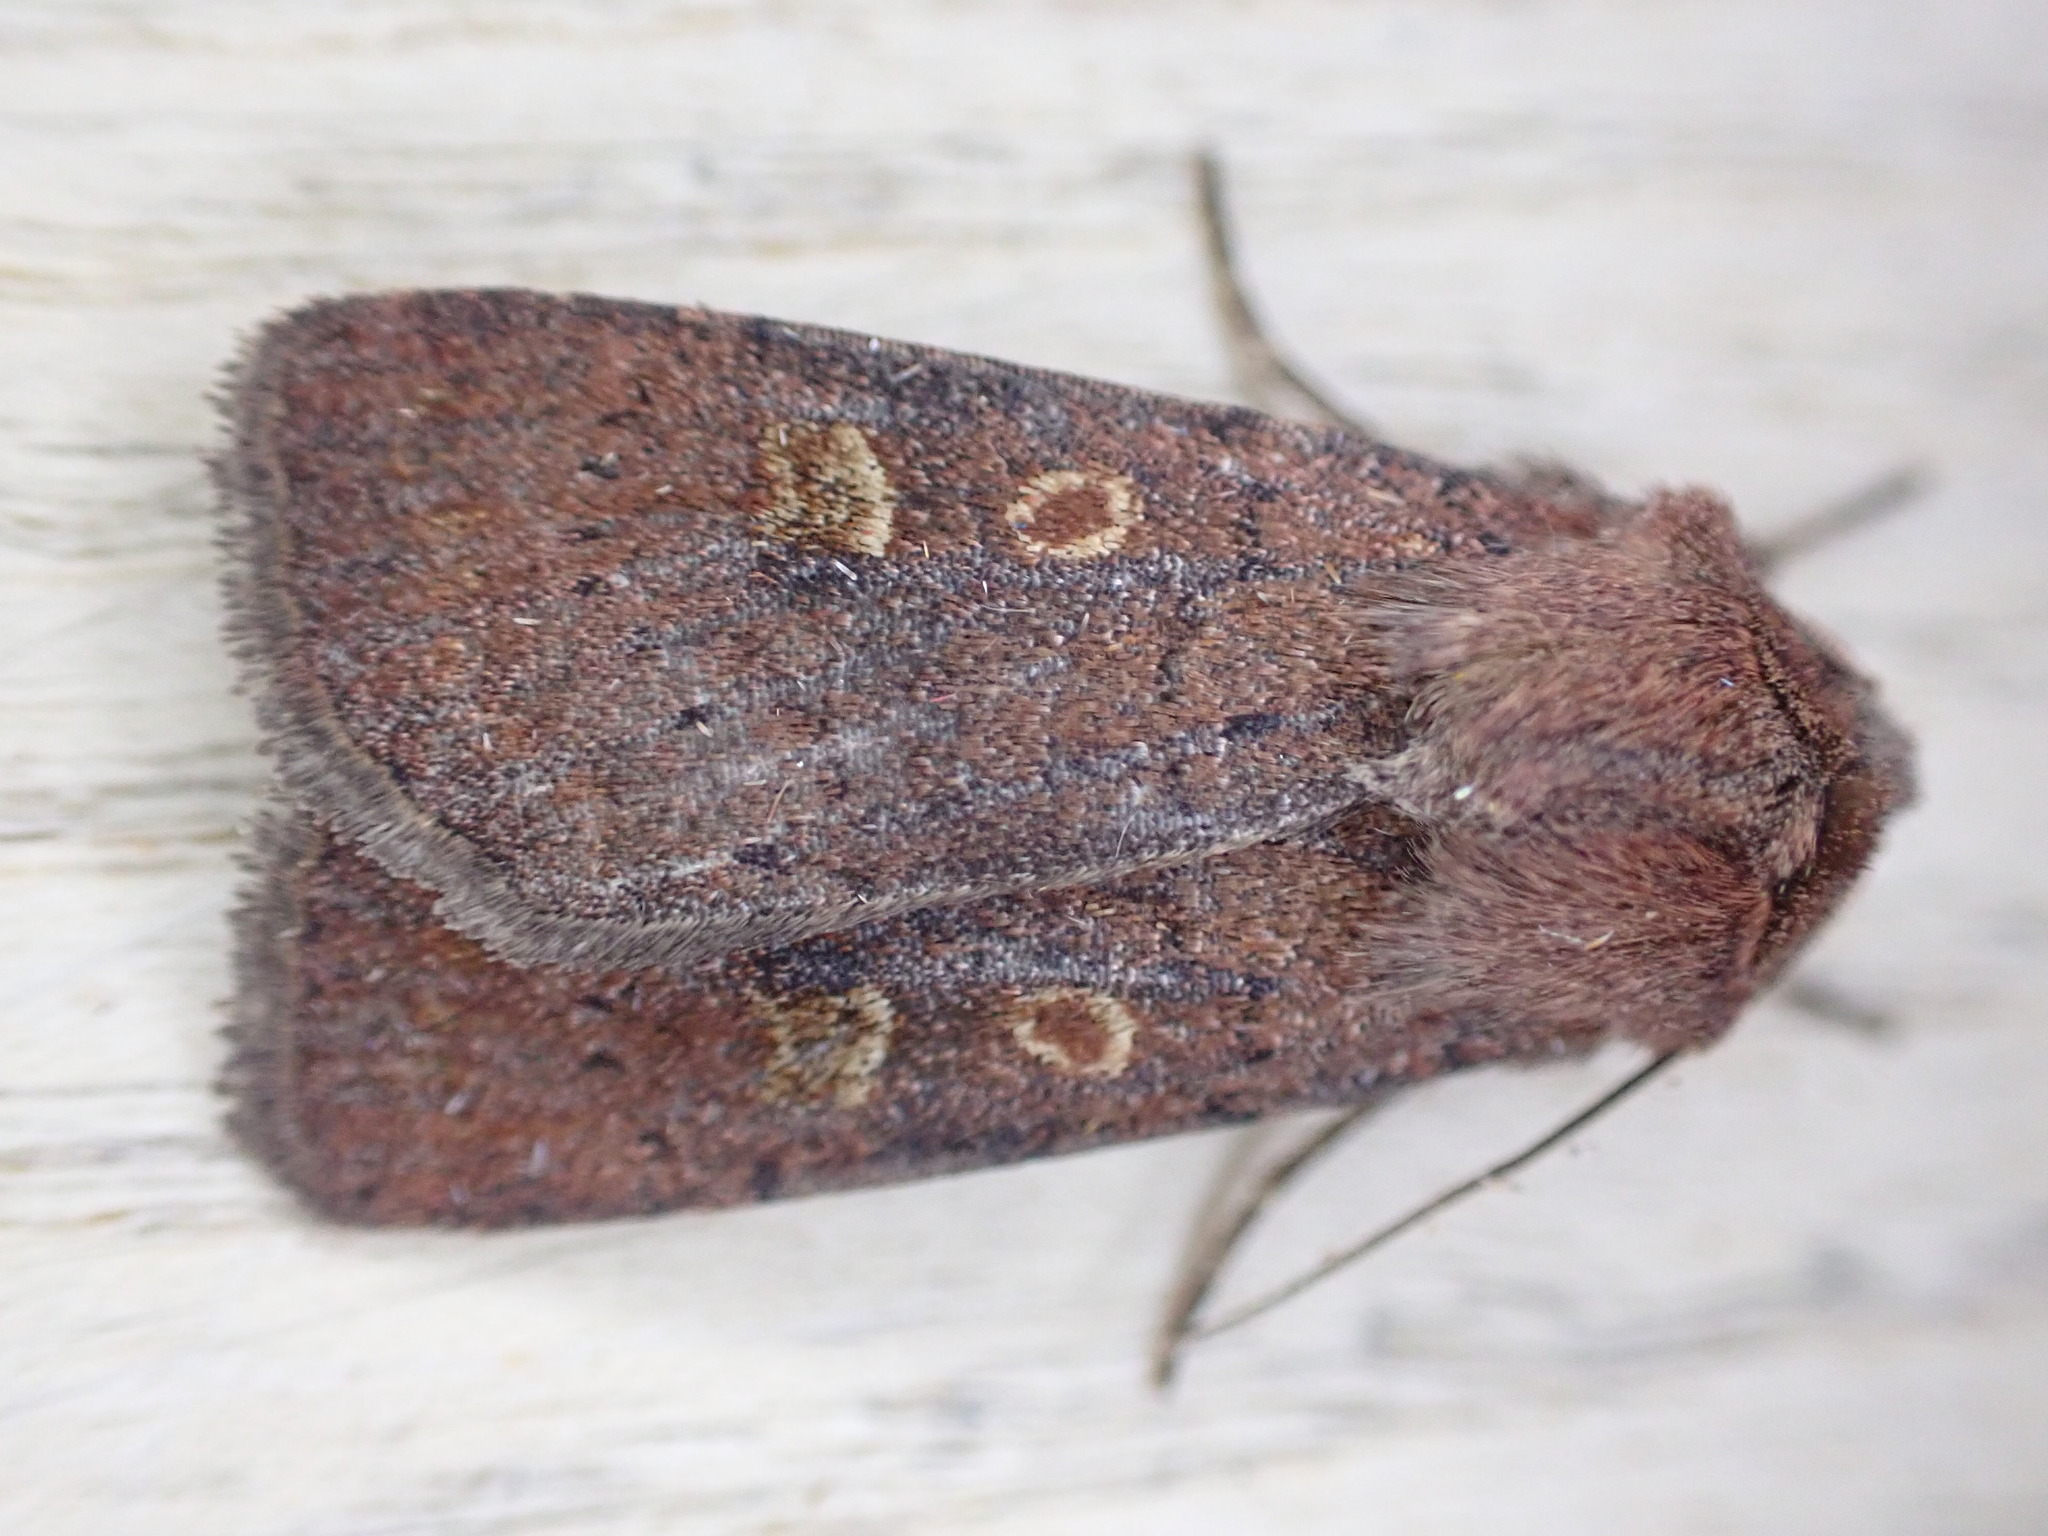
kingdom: Animalia
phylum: Arthropoda
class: Insecta
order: Lepidoptera
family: Noctuidae
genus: Xestia
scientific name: Xestia xanthographa
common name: Square-spot rustic
